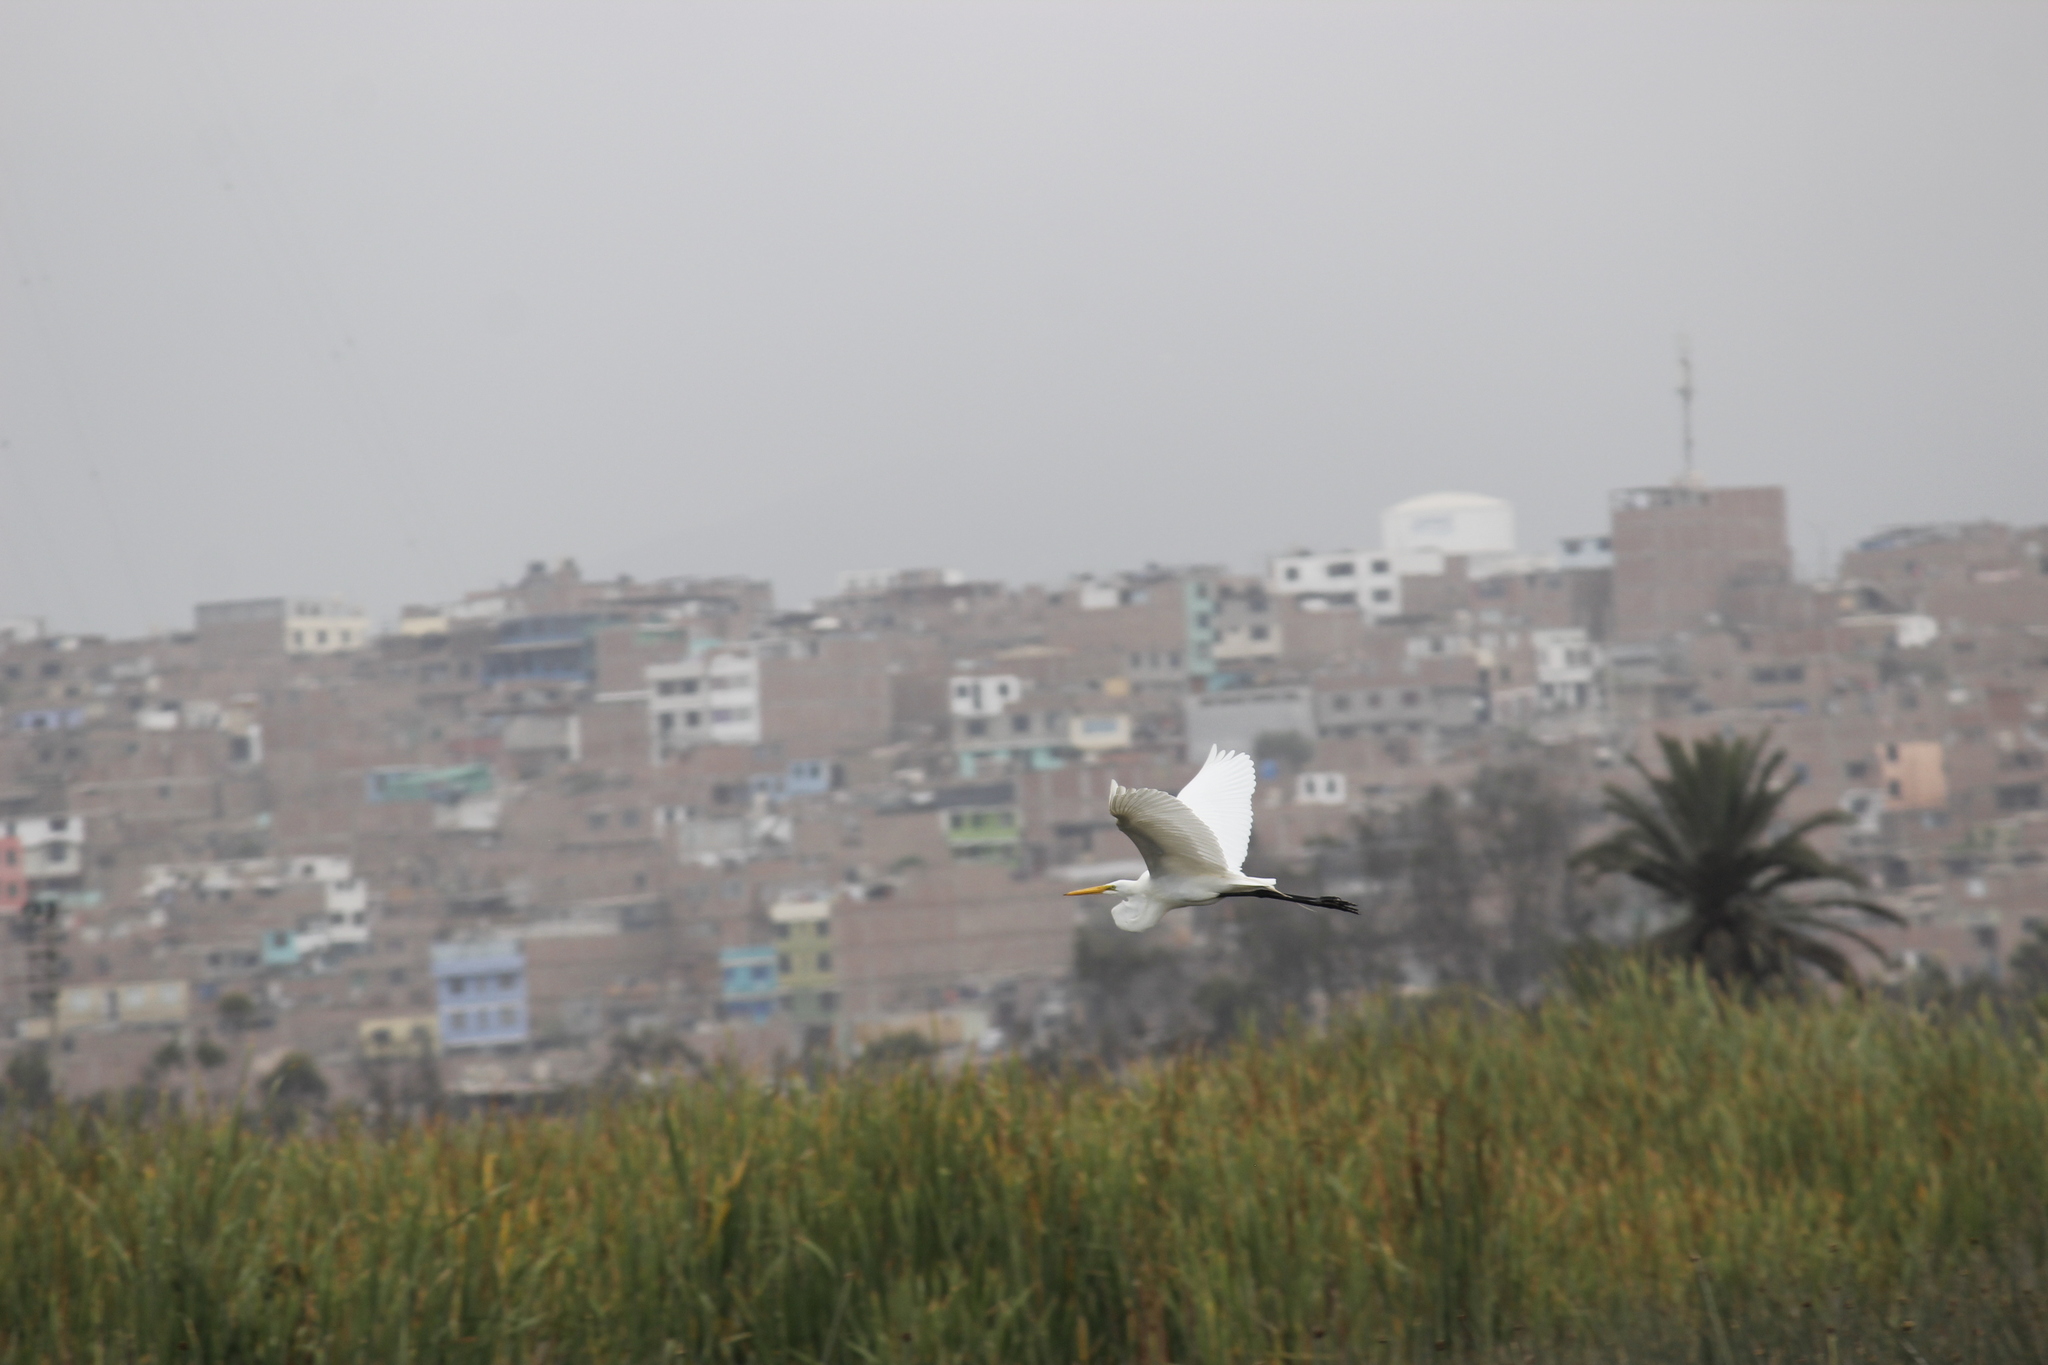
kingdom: Animalia
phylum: Chordata
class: Aves
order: Pelecaniformes
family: Ardeidae
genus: Ardea
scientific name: Ardea alba
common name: Great egret
